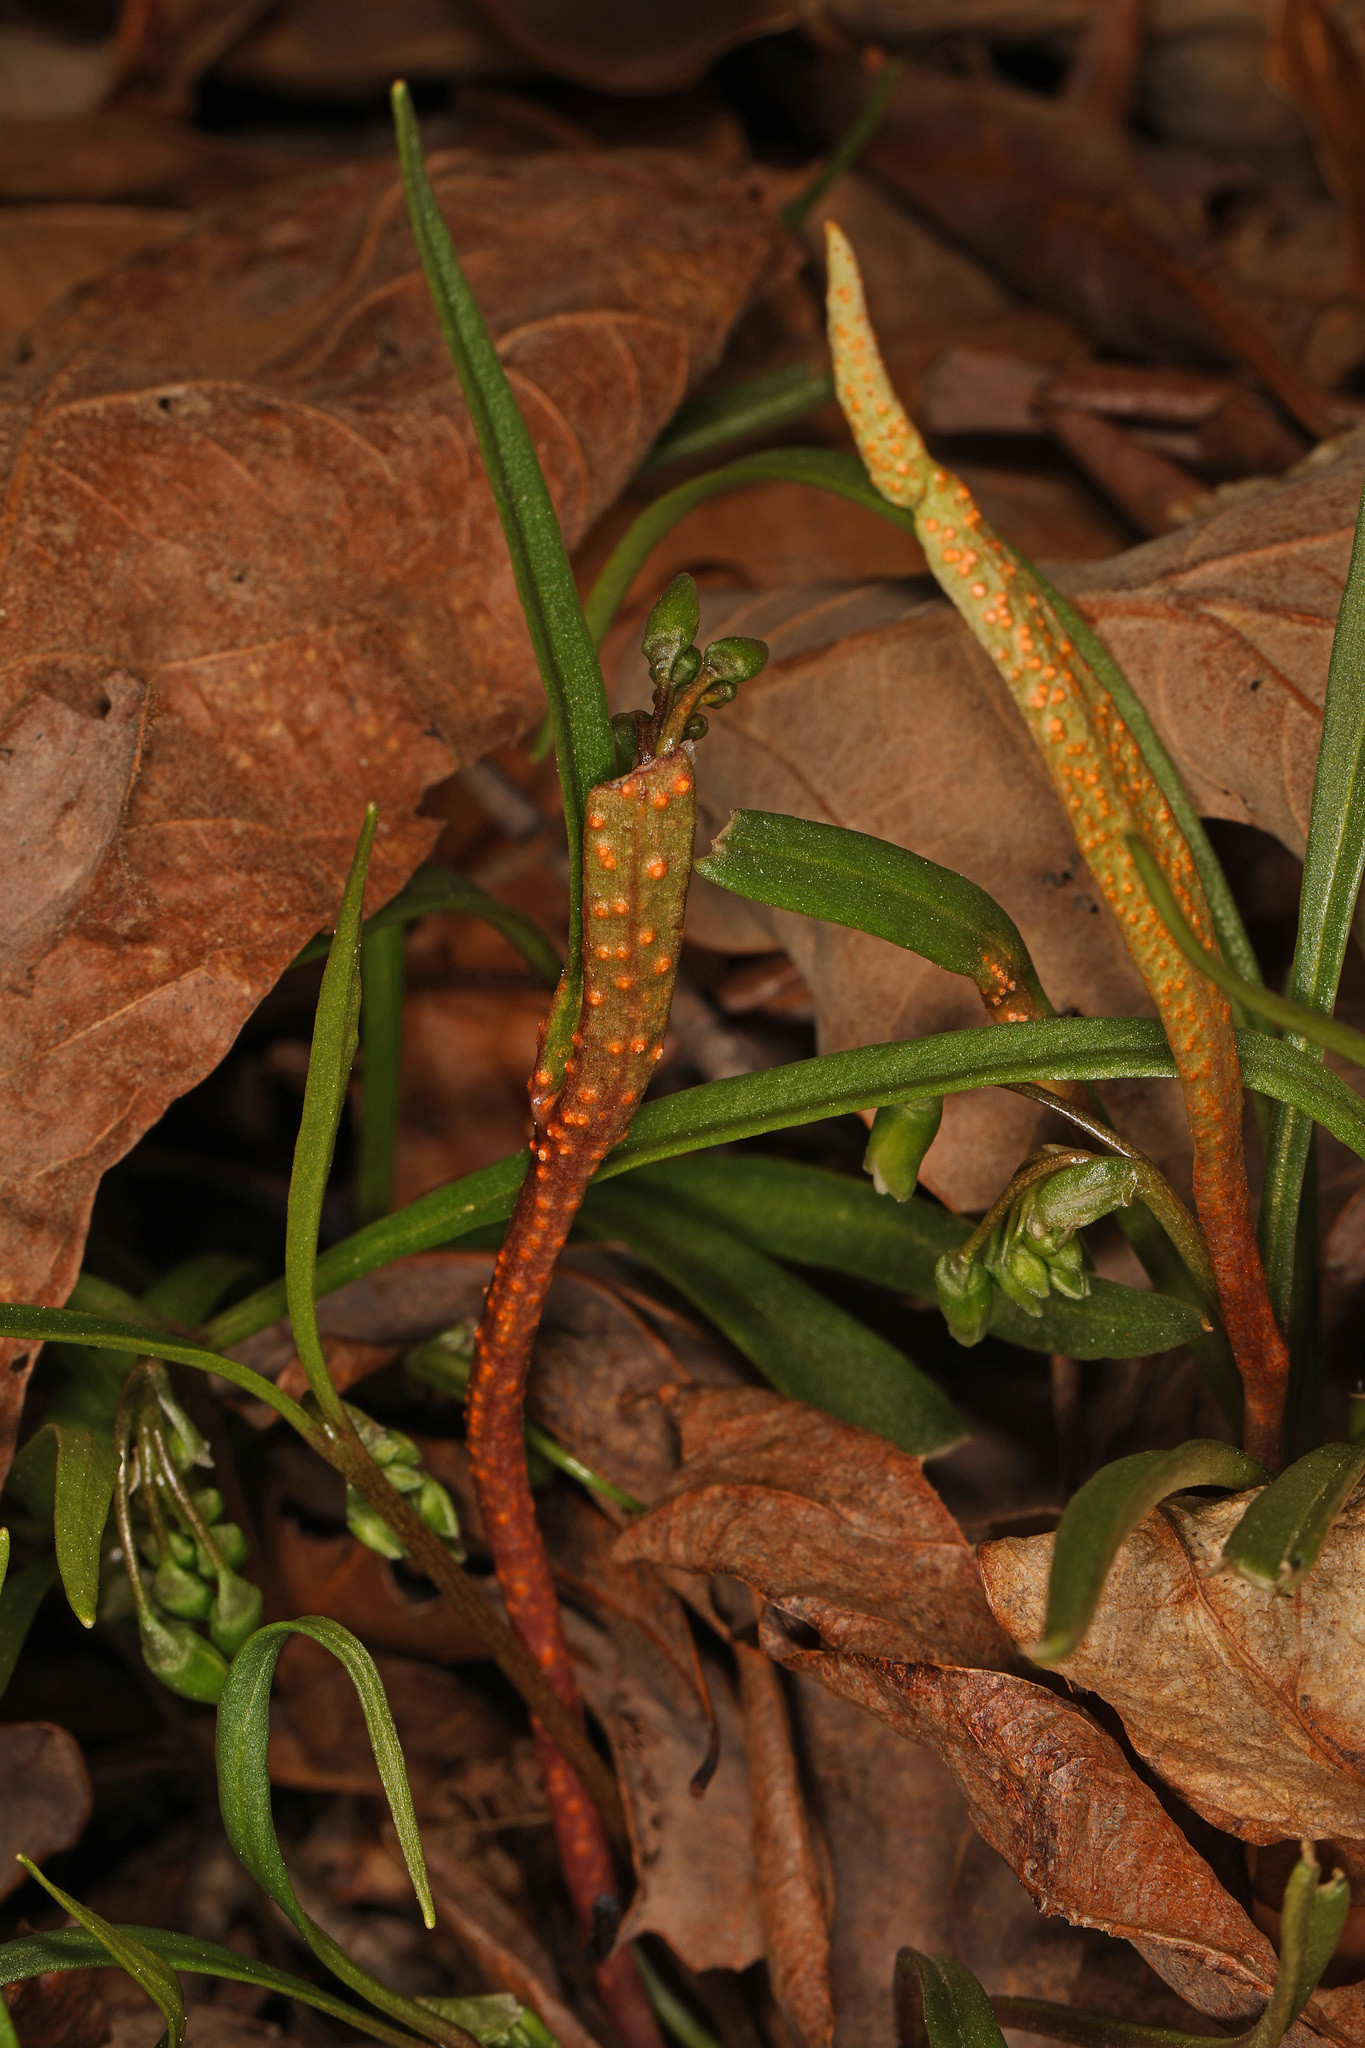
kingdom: Fungi
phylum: Basidiomycota
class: Pucciniomycetes
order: Pucciniales
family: Pucciniaceae
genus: Puccinia
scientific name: Puccinia mariae-wilsoniae
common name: Spring beauty rust
